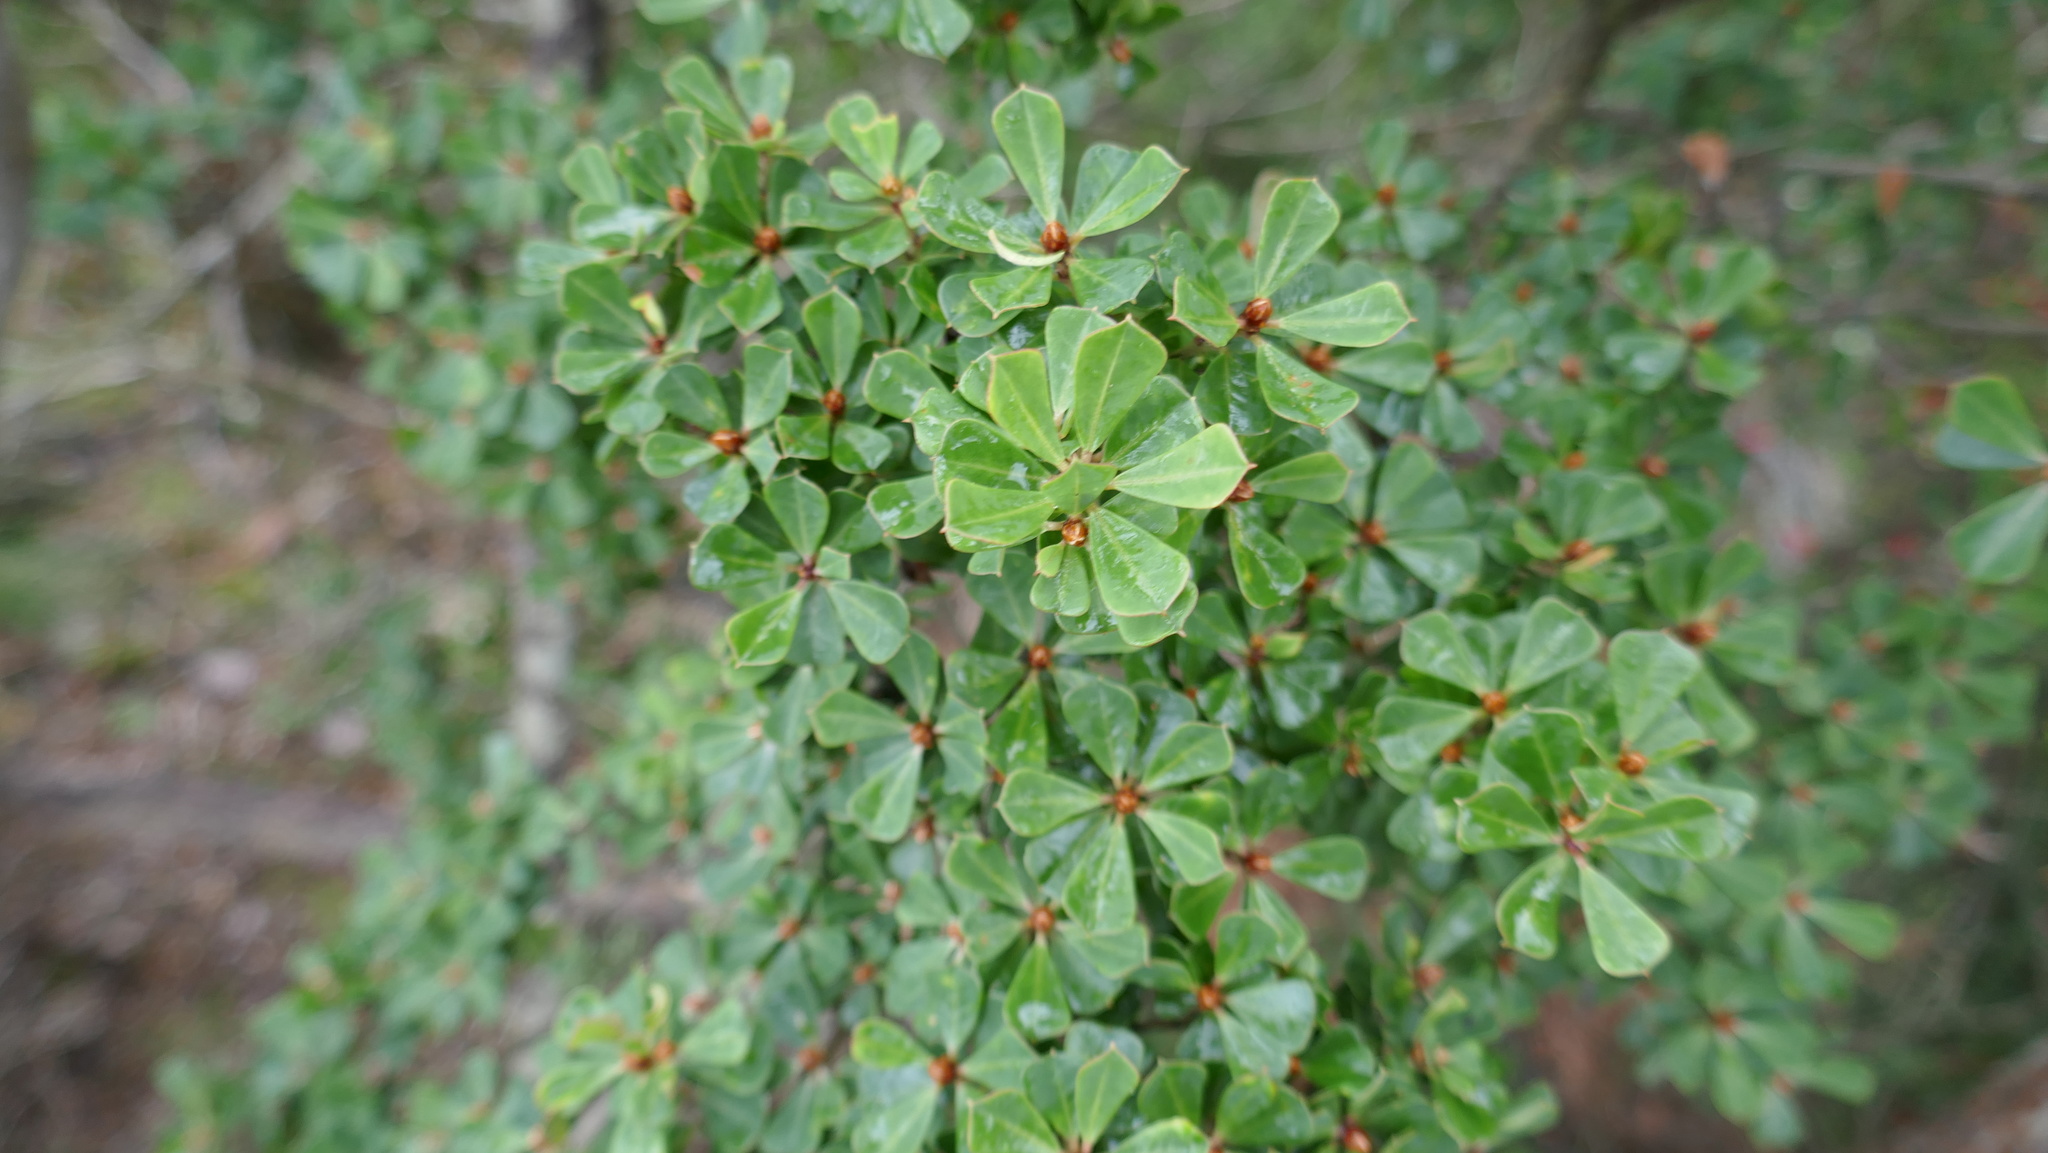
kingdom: Plantae
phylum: Tracheophyta
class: Magnoliopsida
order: Fabales
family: Fabaceae
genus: Pultenaea
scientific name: Pultenaea daphnoides
